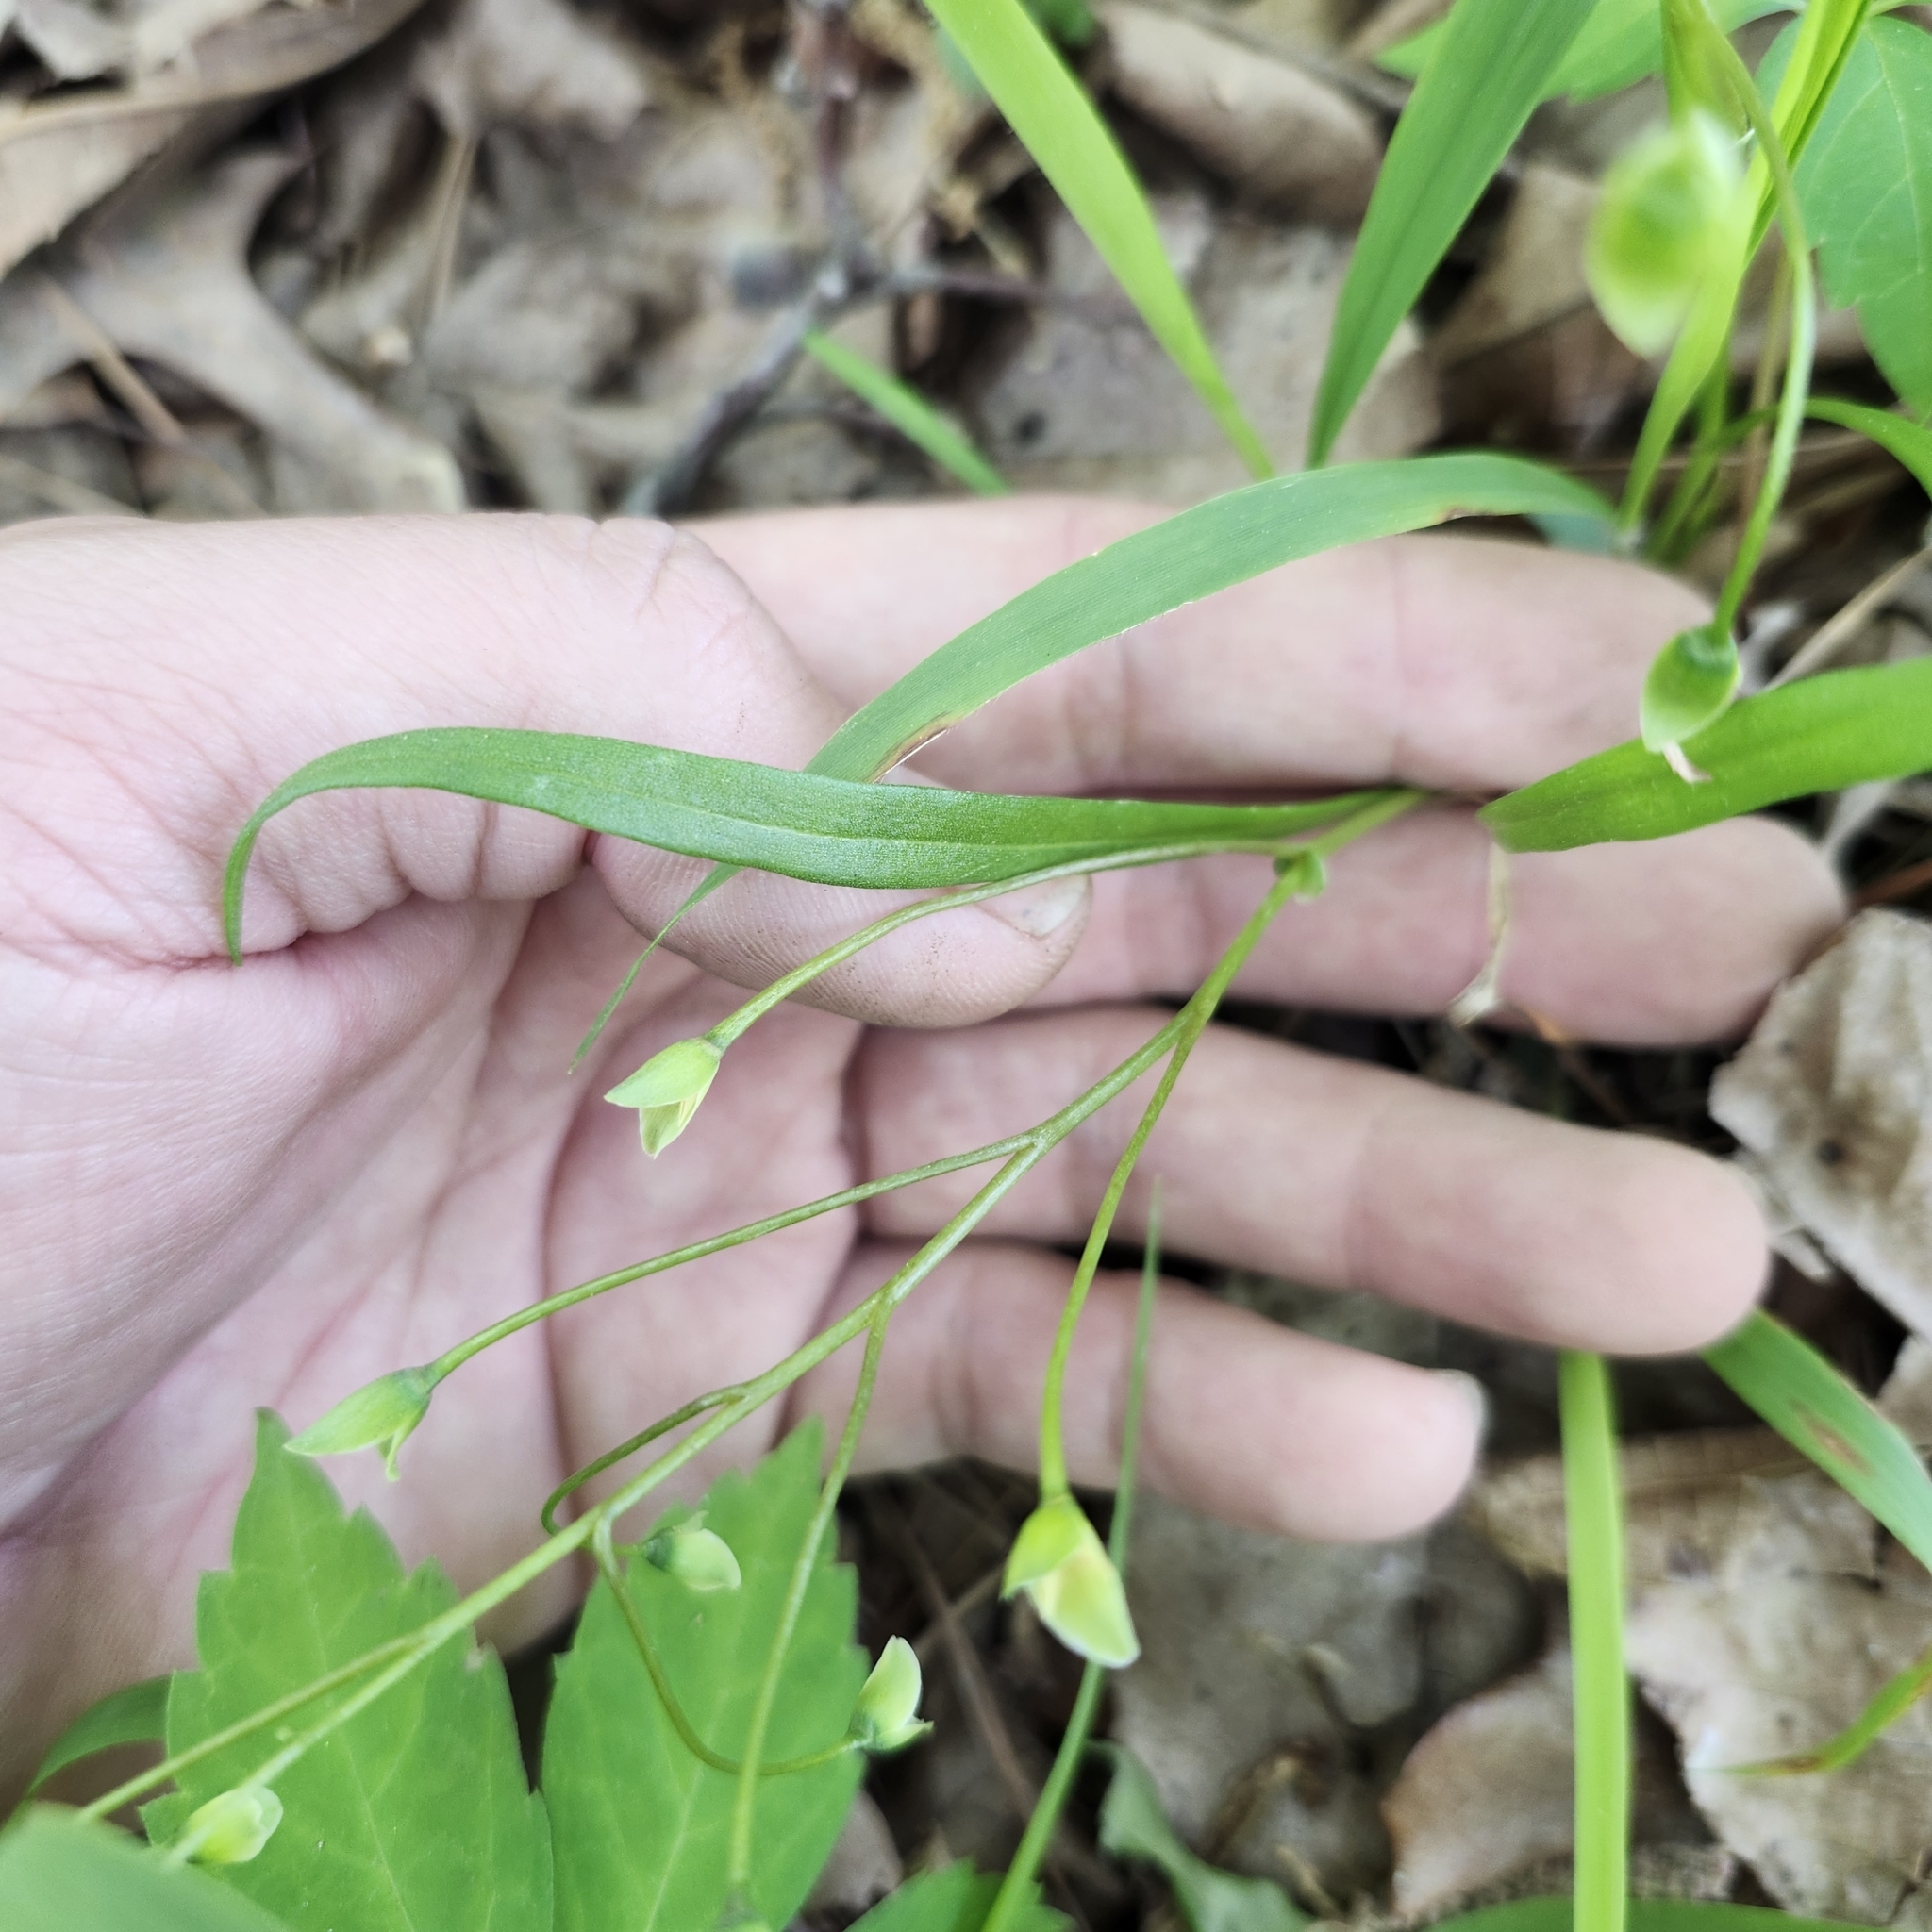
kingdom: Plantae
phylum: Tracheophyta
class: Magnoliopsida
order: Caryophyllales
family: Montiaceae
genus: Claytonia
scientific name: Claytonia virginica
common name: Virginia springbeauty
